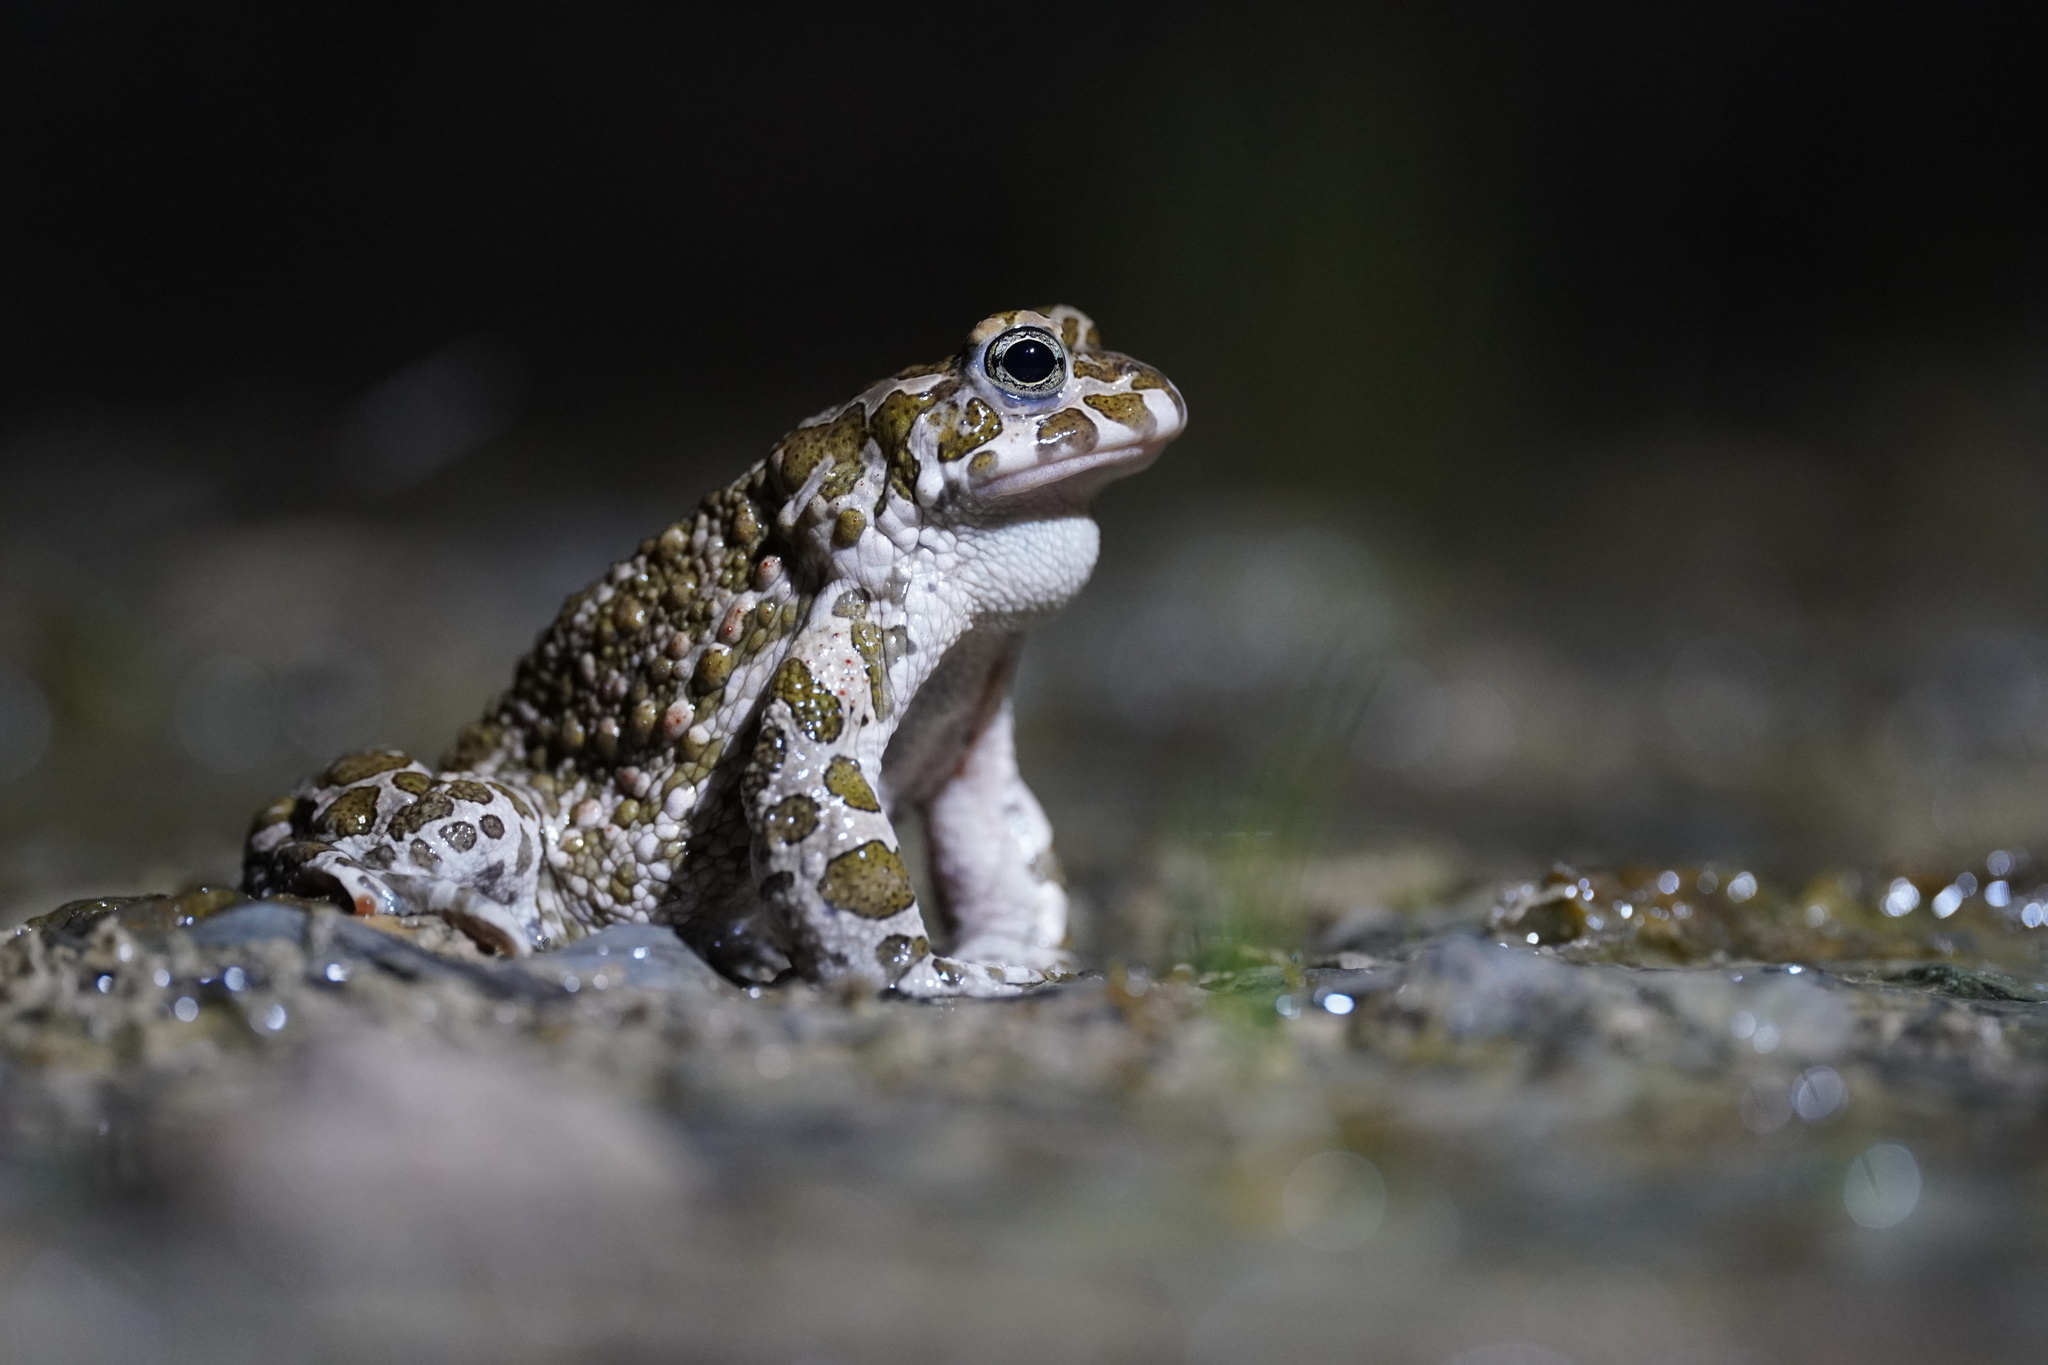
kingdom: Animalia
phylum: Chordata
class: Amphibia
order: Anura
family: Bufonidae
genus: Bufotes
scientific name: Bufotes viridis
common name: European green toad
